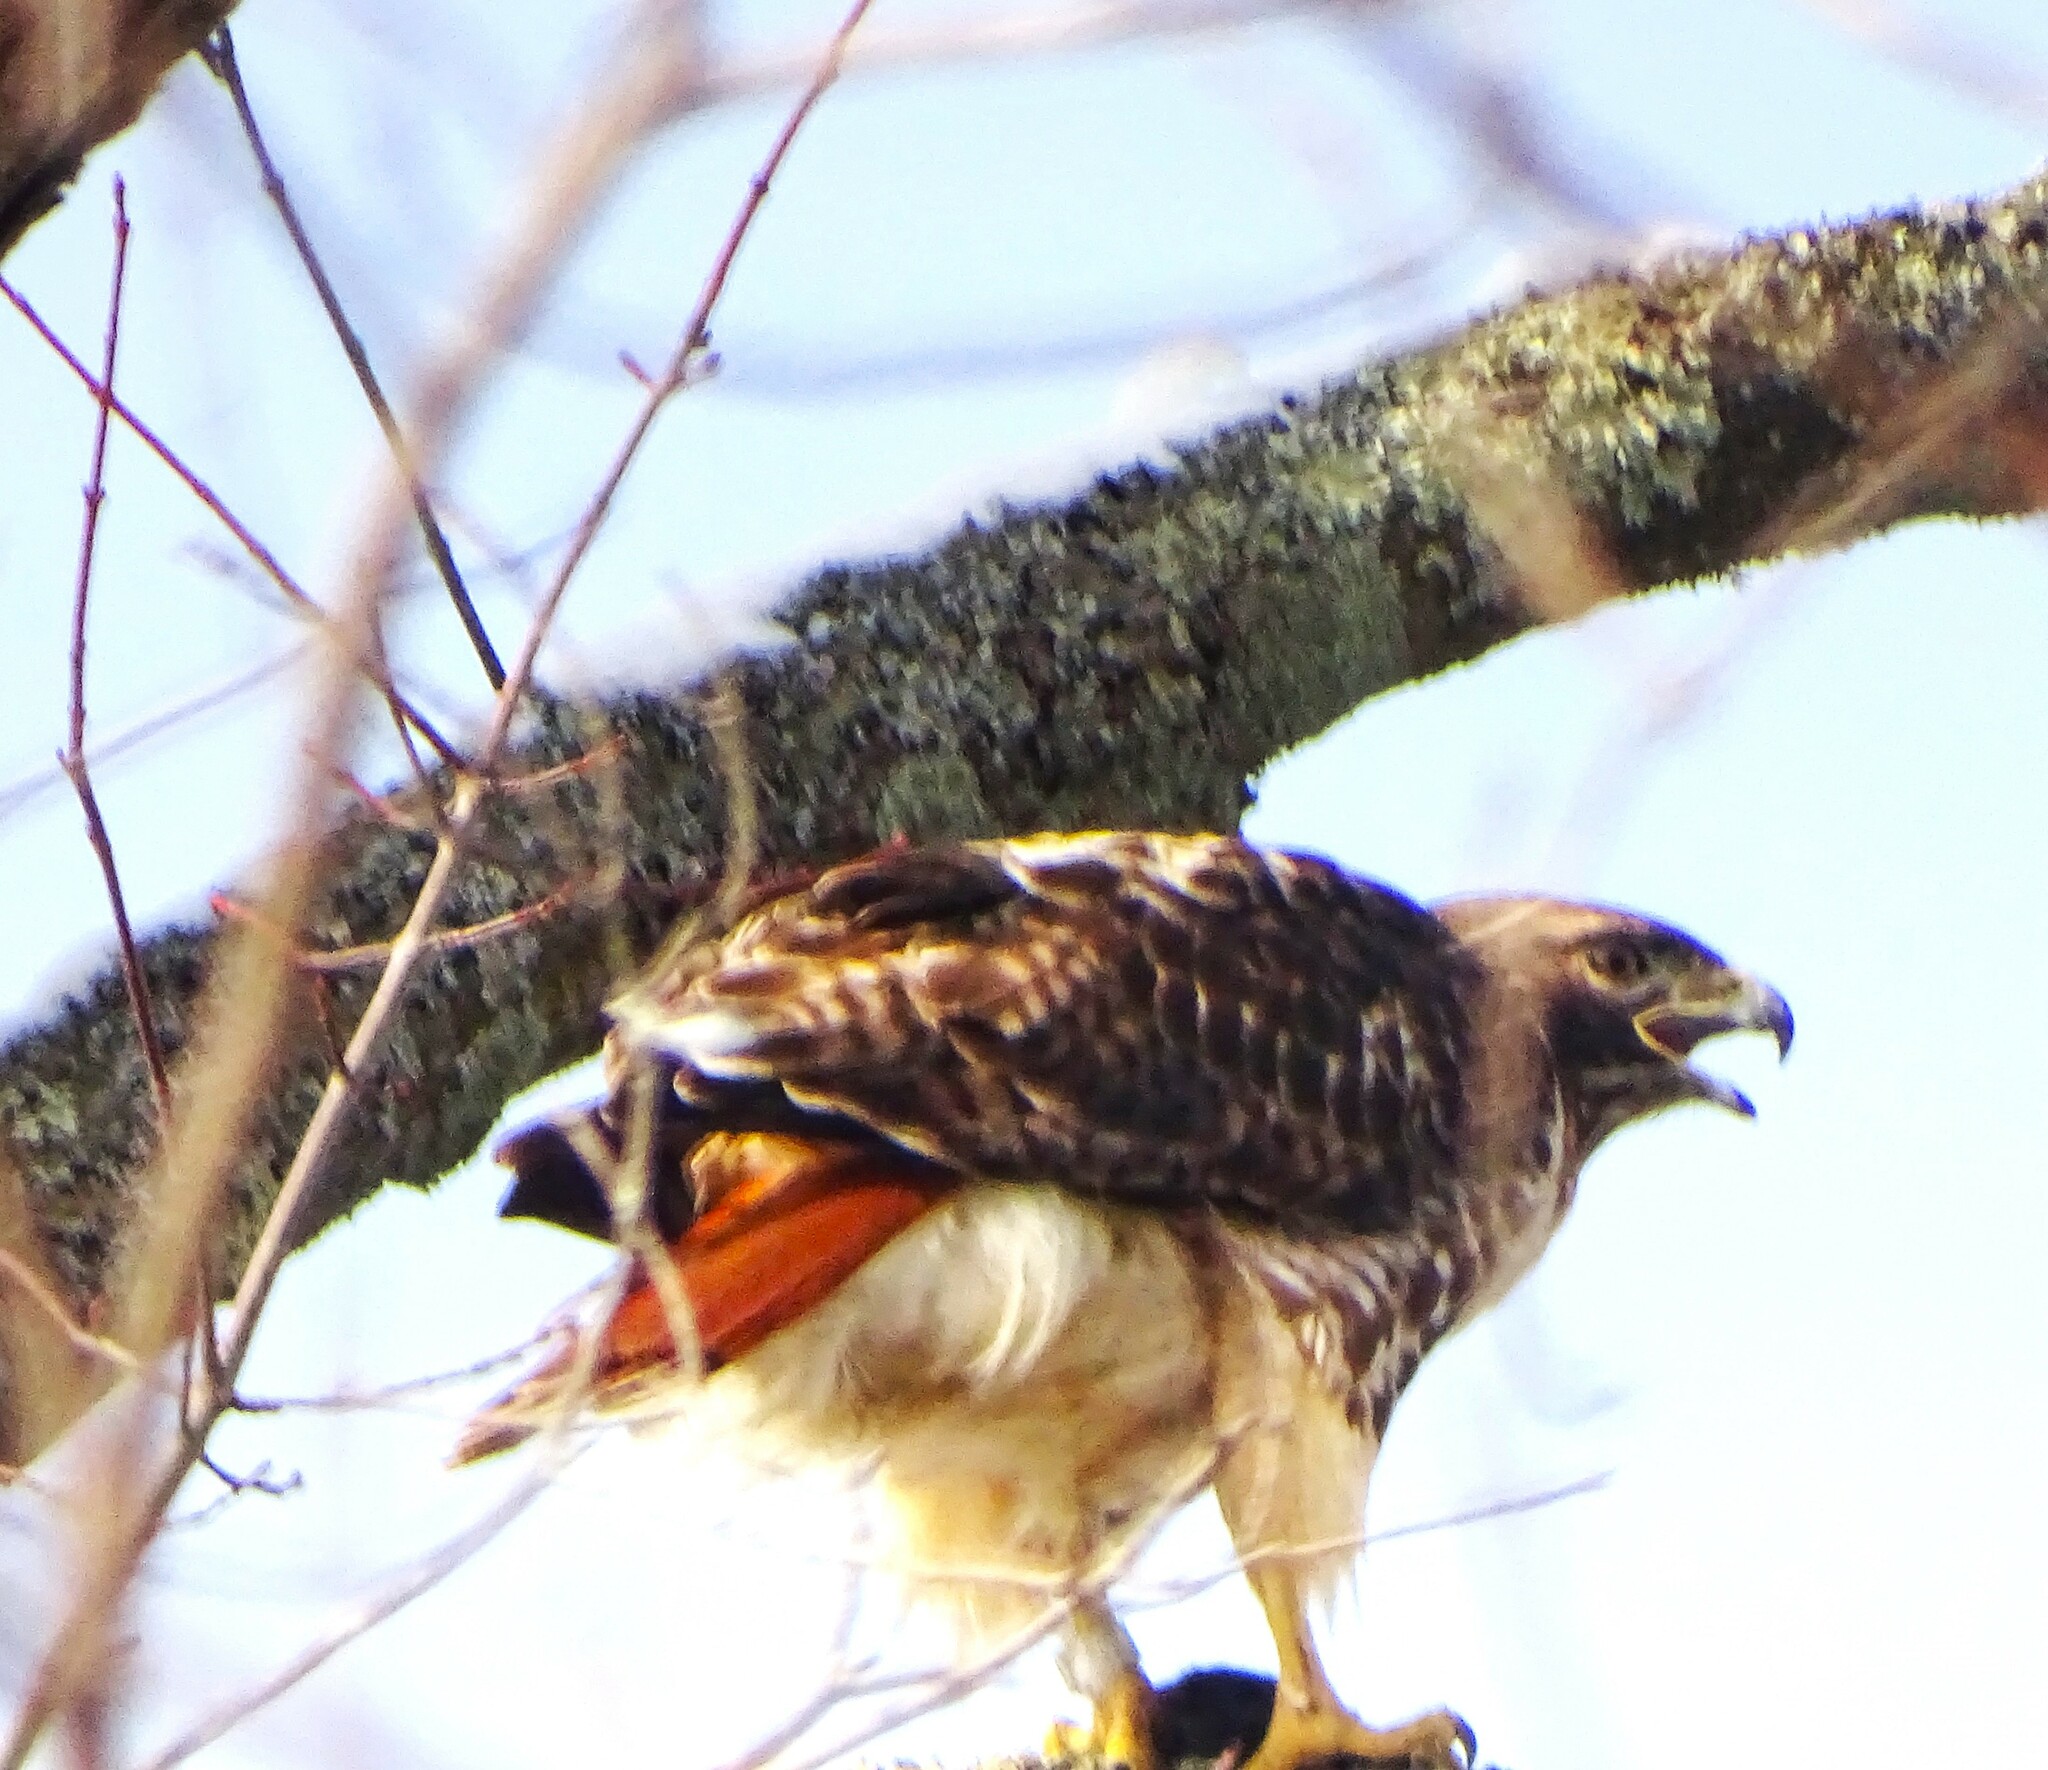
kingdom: Animalia
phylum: Chordata
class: Aves
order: Accipitriformes
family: Accipitridae
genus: Buteo
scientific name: Buteo jamaicensis
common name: Red-tailed hawk
